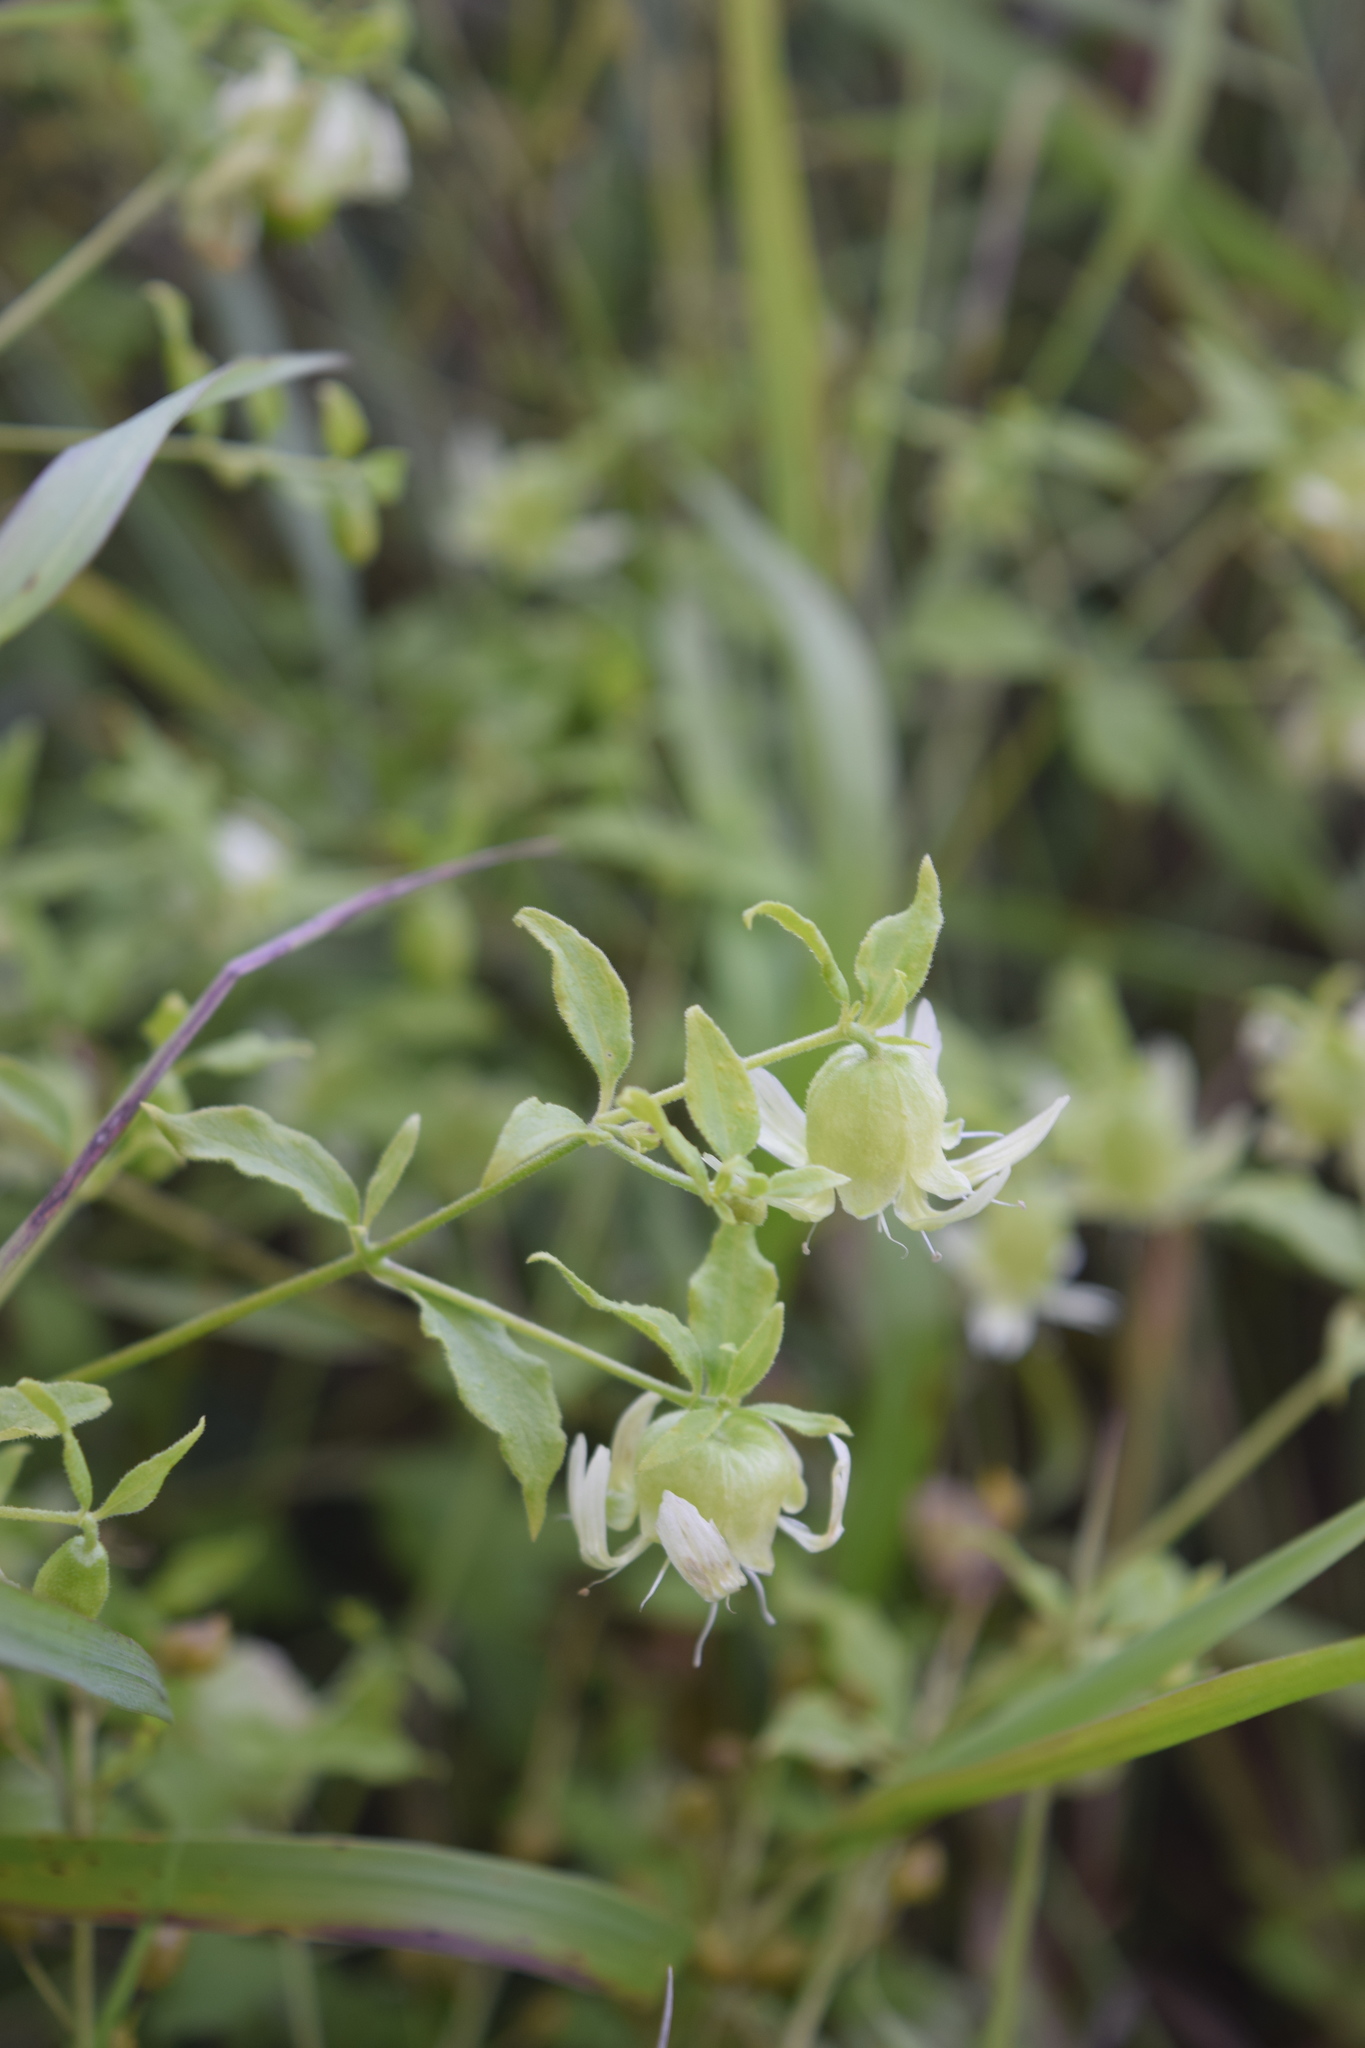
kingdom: Plantae
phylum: Tracheophyta
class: Magnoliopsida
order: Caryophyllales
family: Caryophyllaceae
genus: Silene
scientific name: Silene baccifera
